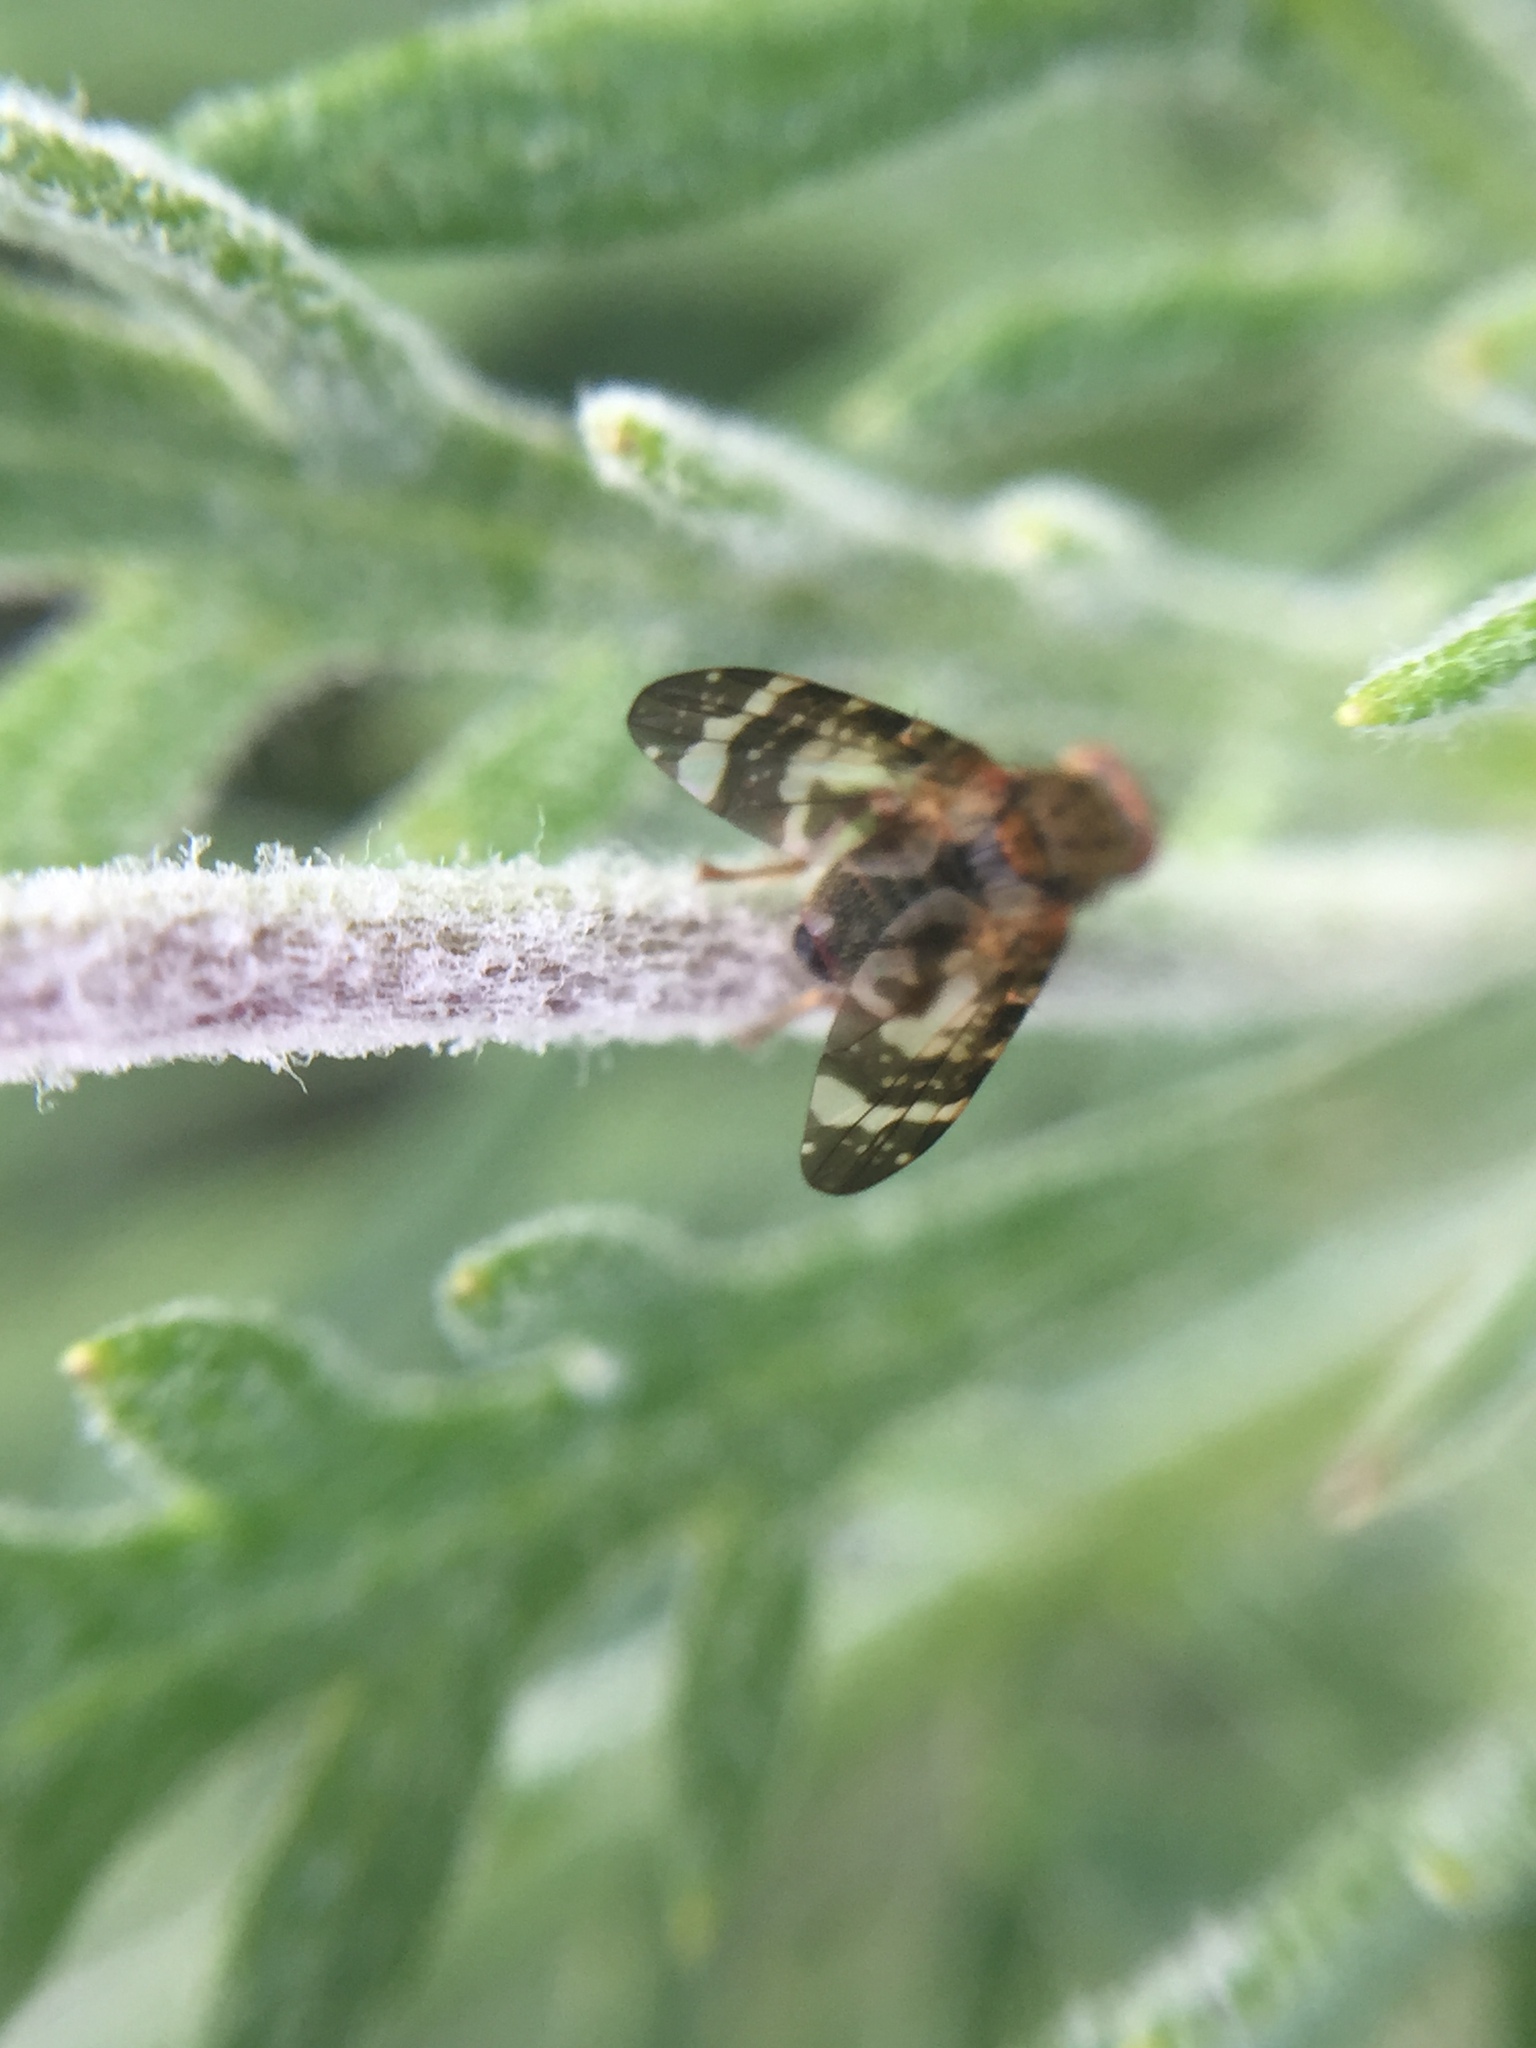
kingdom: Animalia
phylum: Arthropoda
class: Insecta
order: Diptera
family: Tephritidae
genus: Sphenella
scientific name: Sphenella
